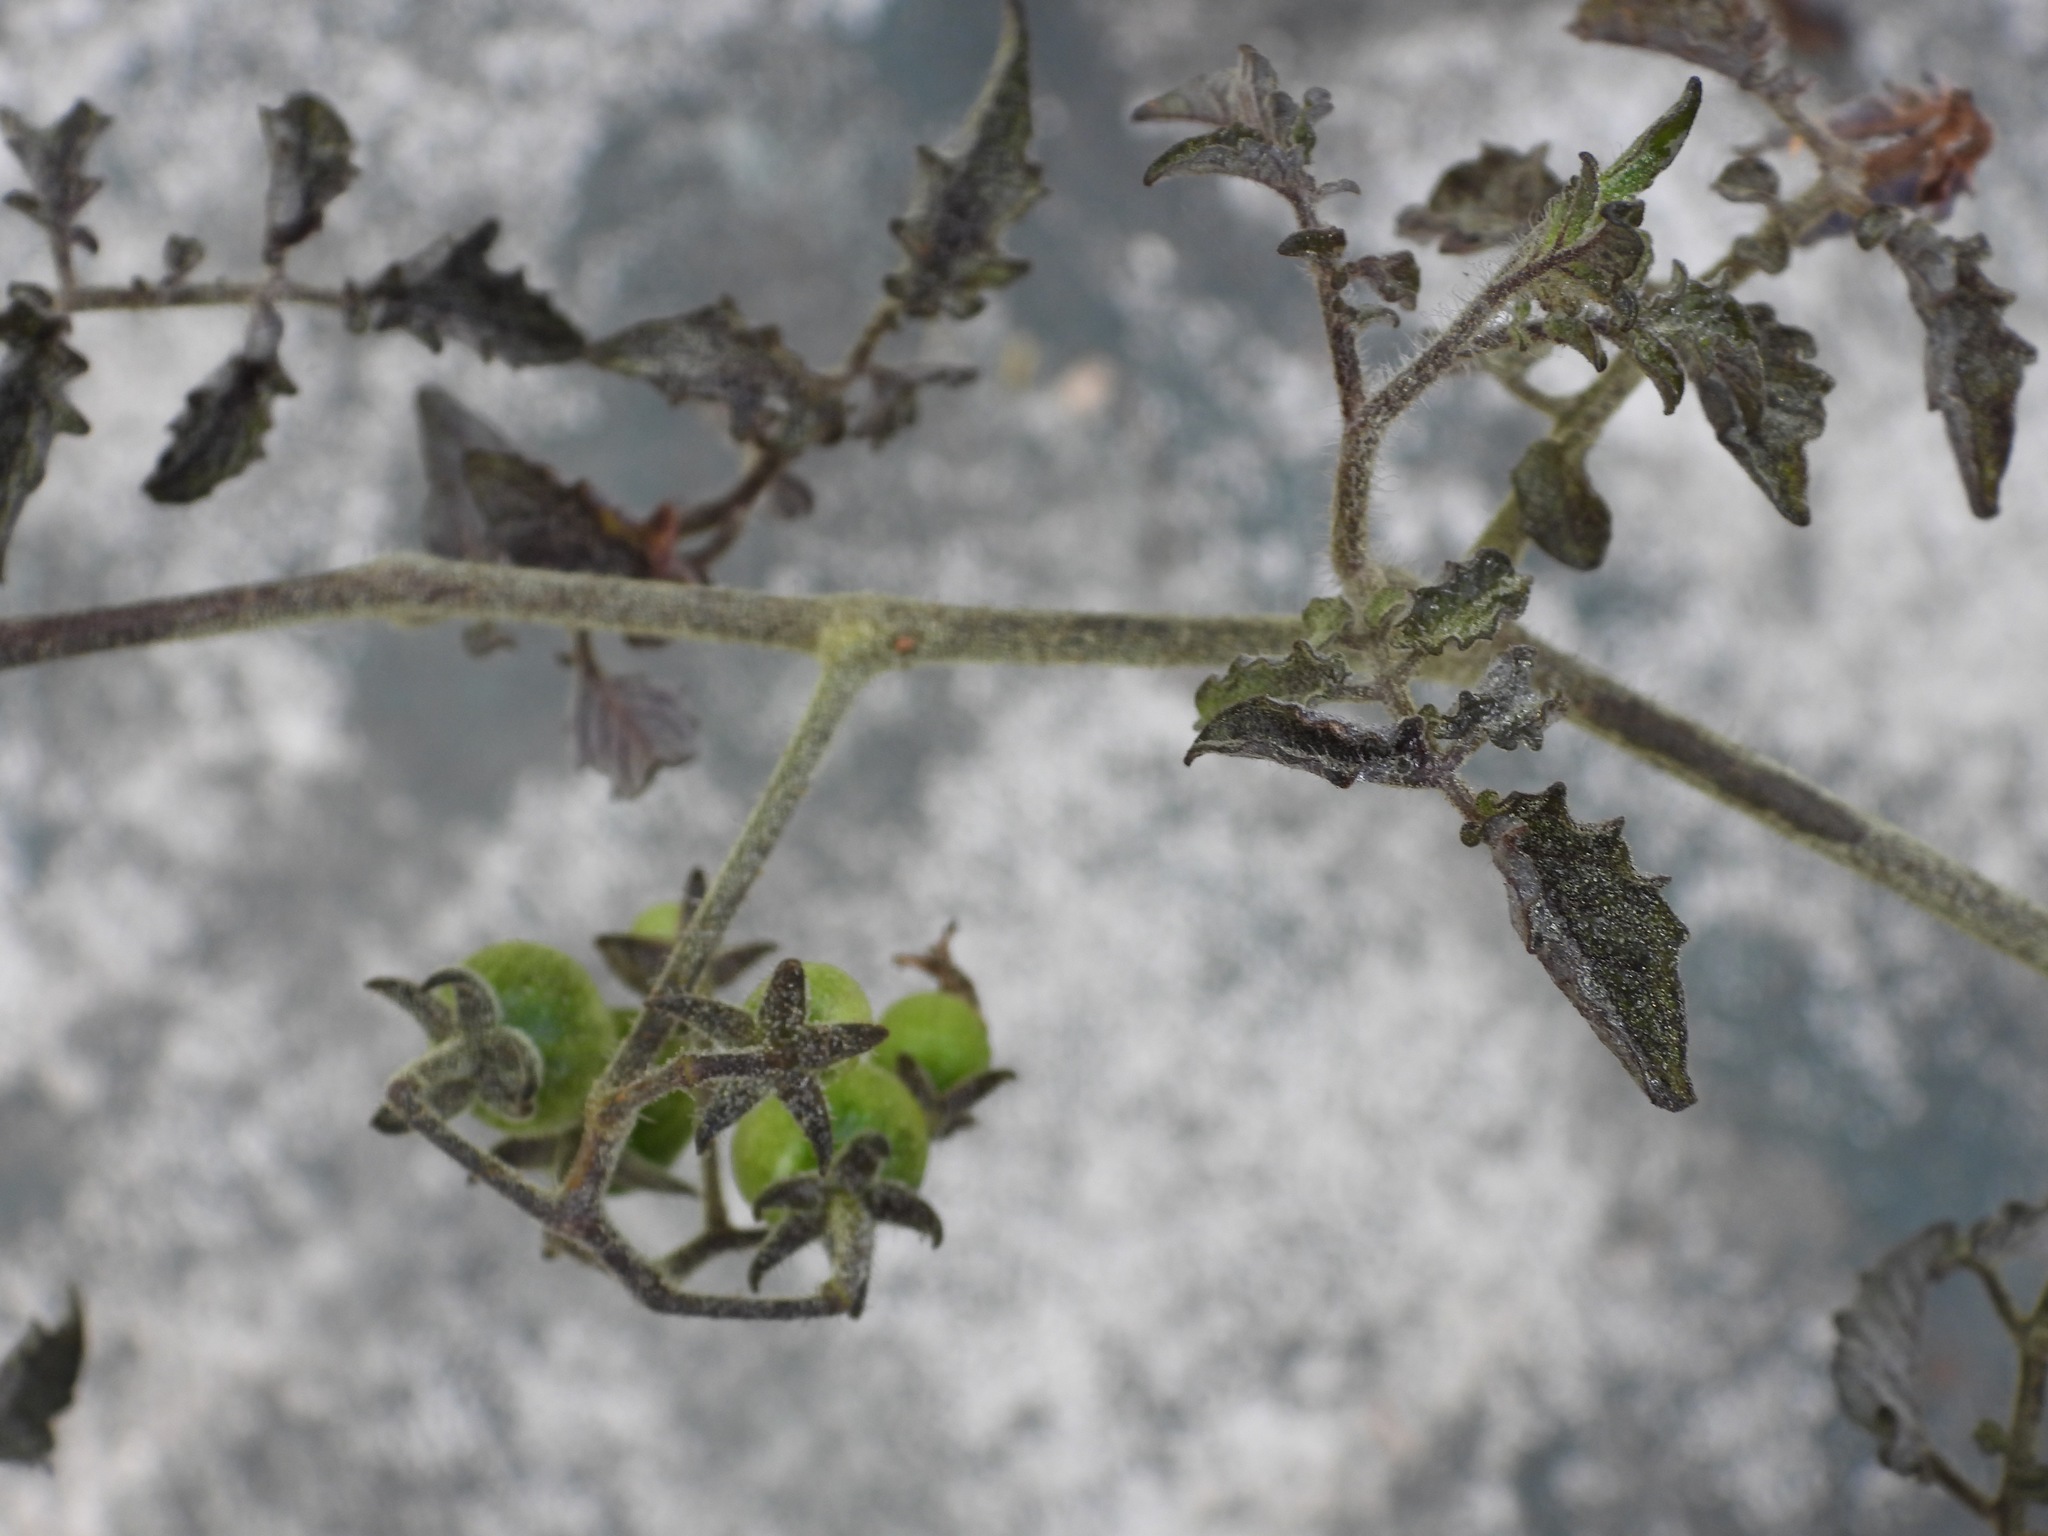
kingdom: Plantae
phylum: Tracheophyta
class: Magnoliopsida
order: Solanales
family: Solanaceae
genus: Solanum
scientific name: Solanum lycopersicum
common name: Garden tomato
